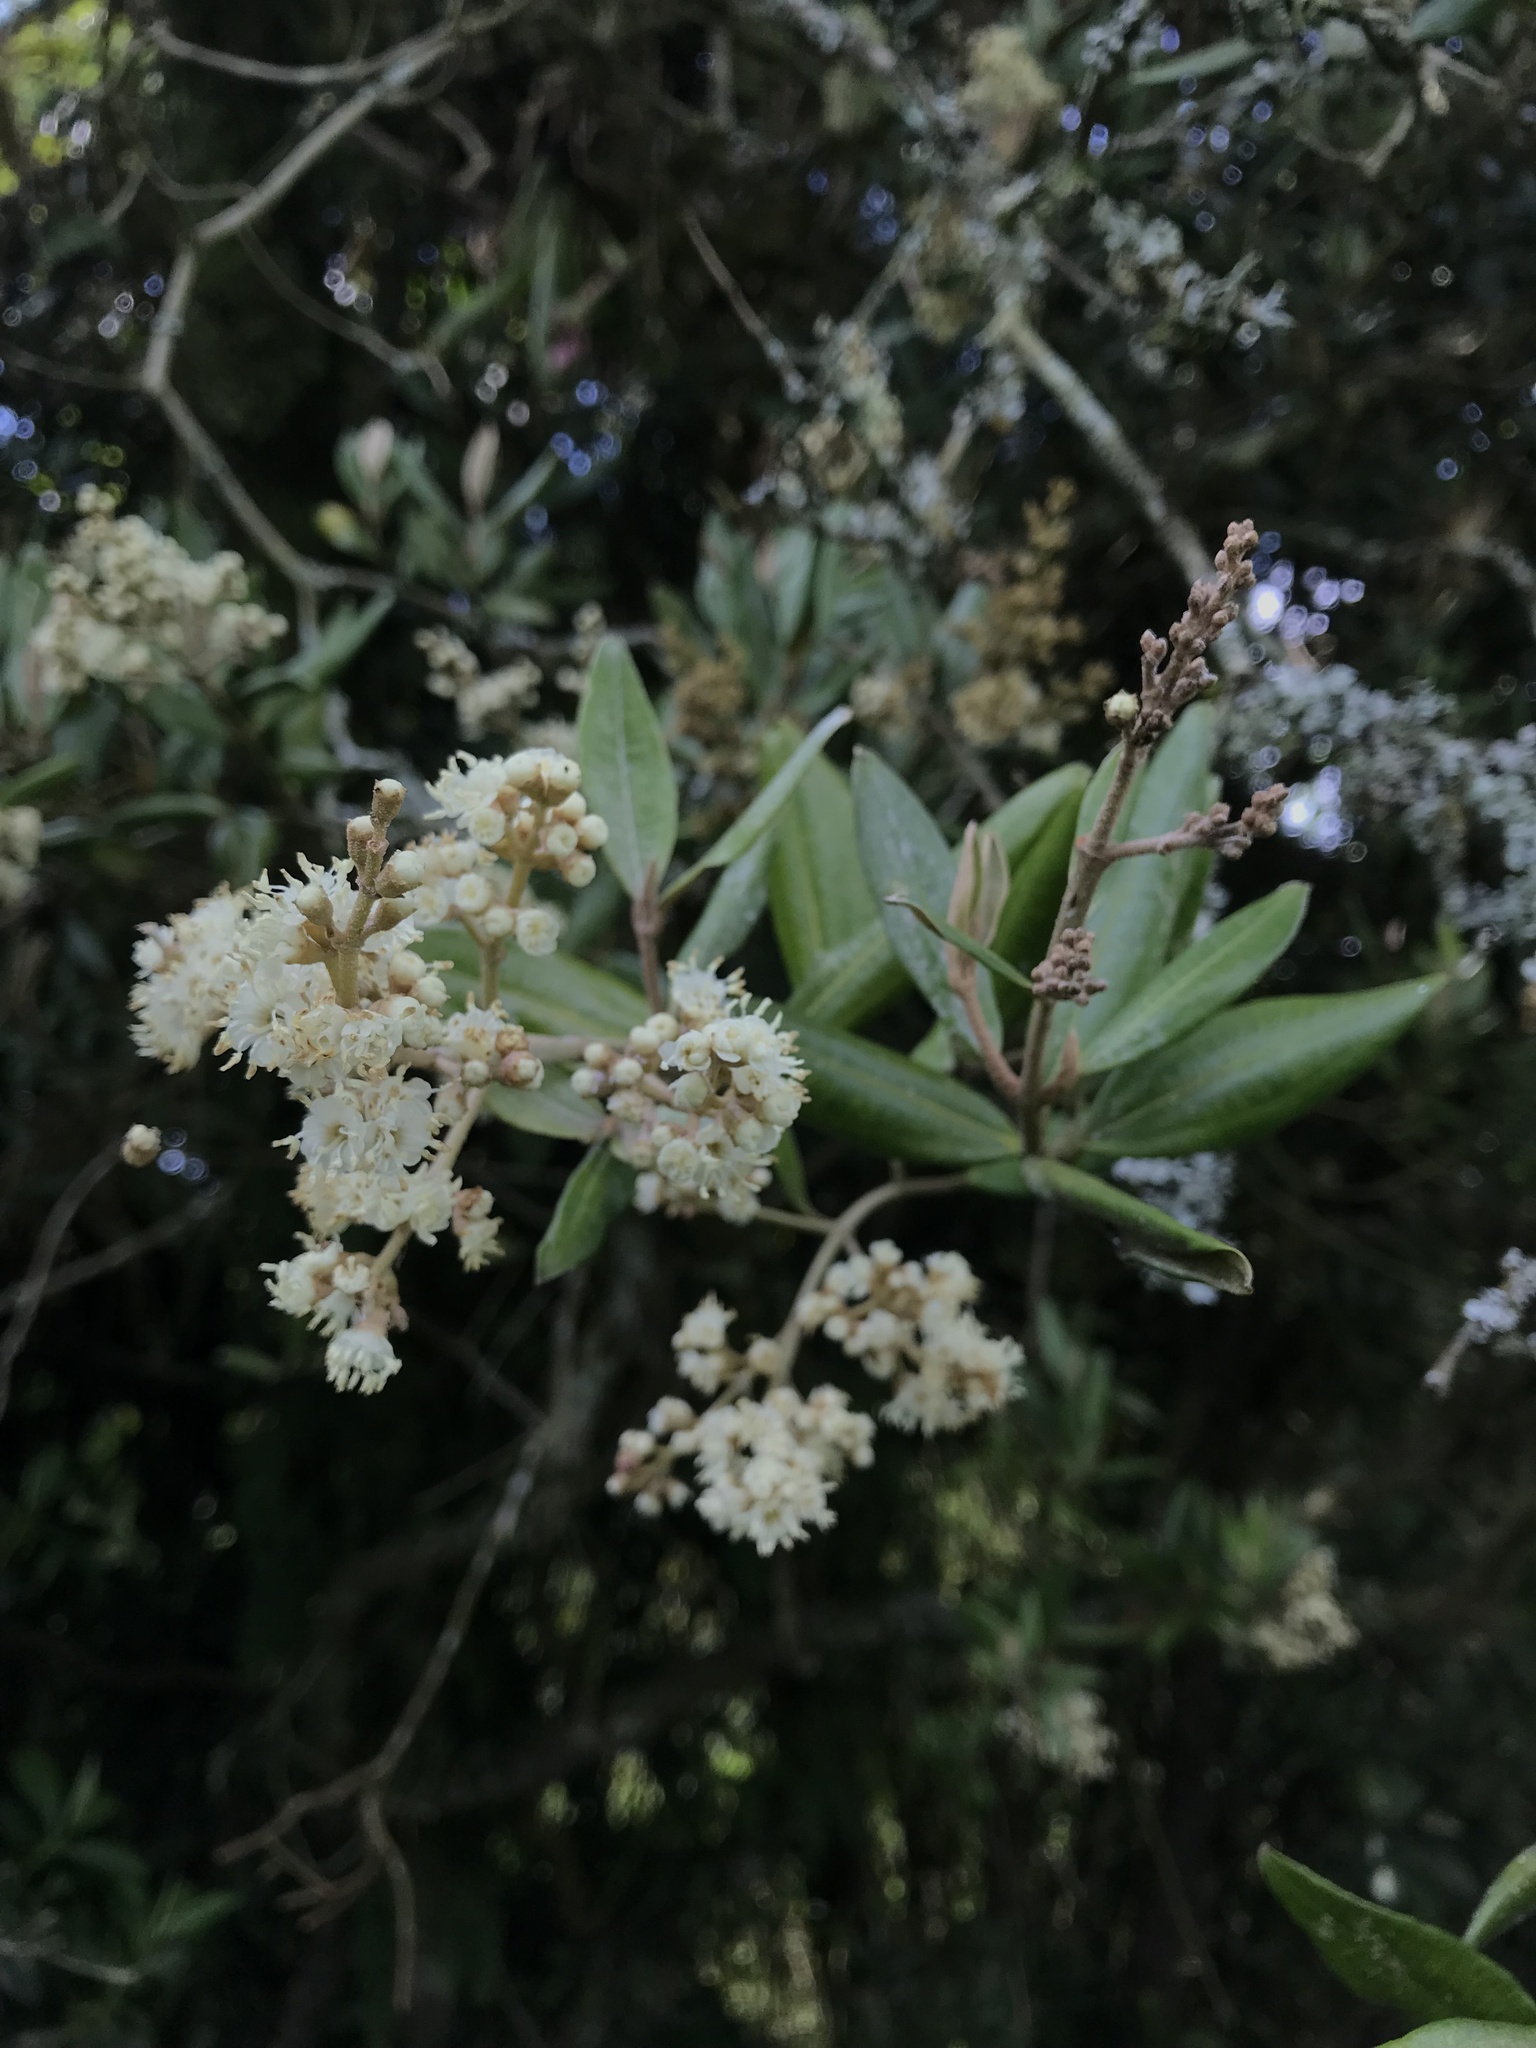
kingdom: Plantae
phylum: Tracheophyta
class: Magnoliopsida
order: Myrtales
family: Melastomataceae
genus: Miconia
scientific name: Miconia squamulosa
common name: Squamulose maya
